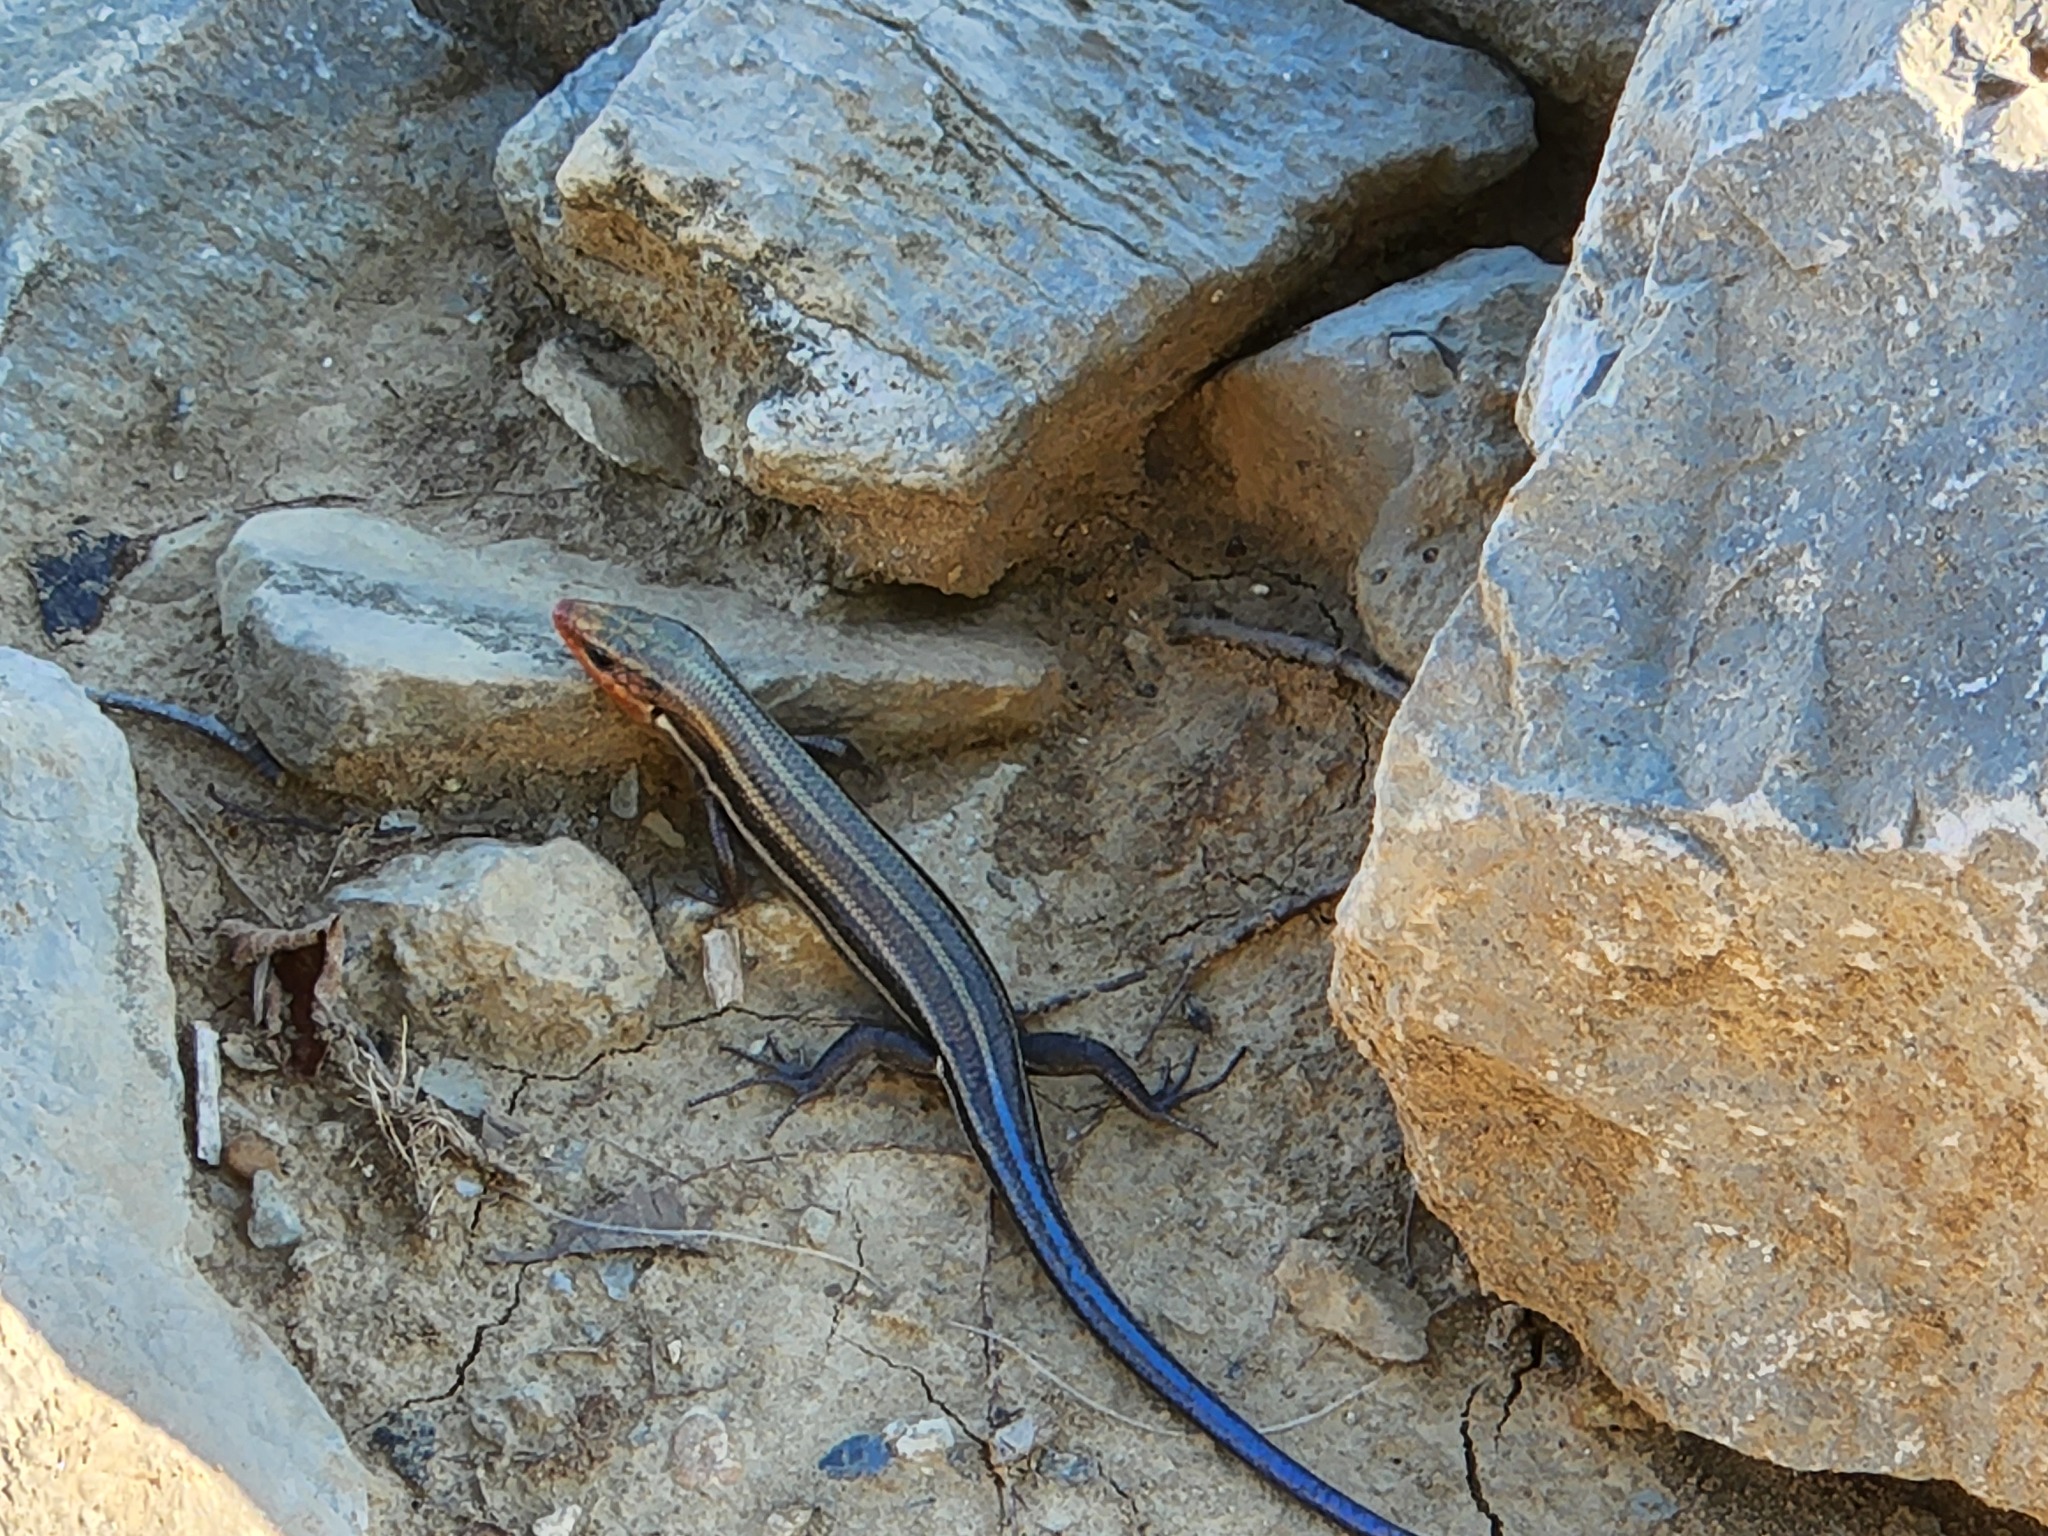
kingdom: Animalia
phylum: Chordata
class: Squamata
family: Scincidae
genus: Plestiodon
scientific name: Plestiodon fasciatus
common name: Five-lined skink
